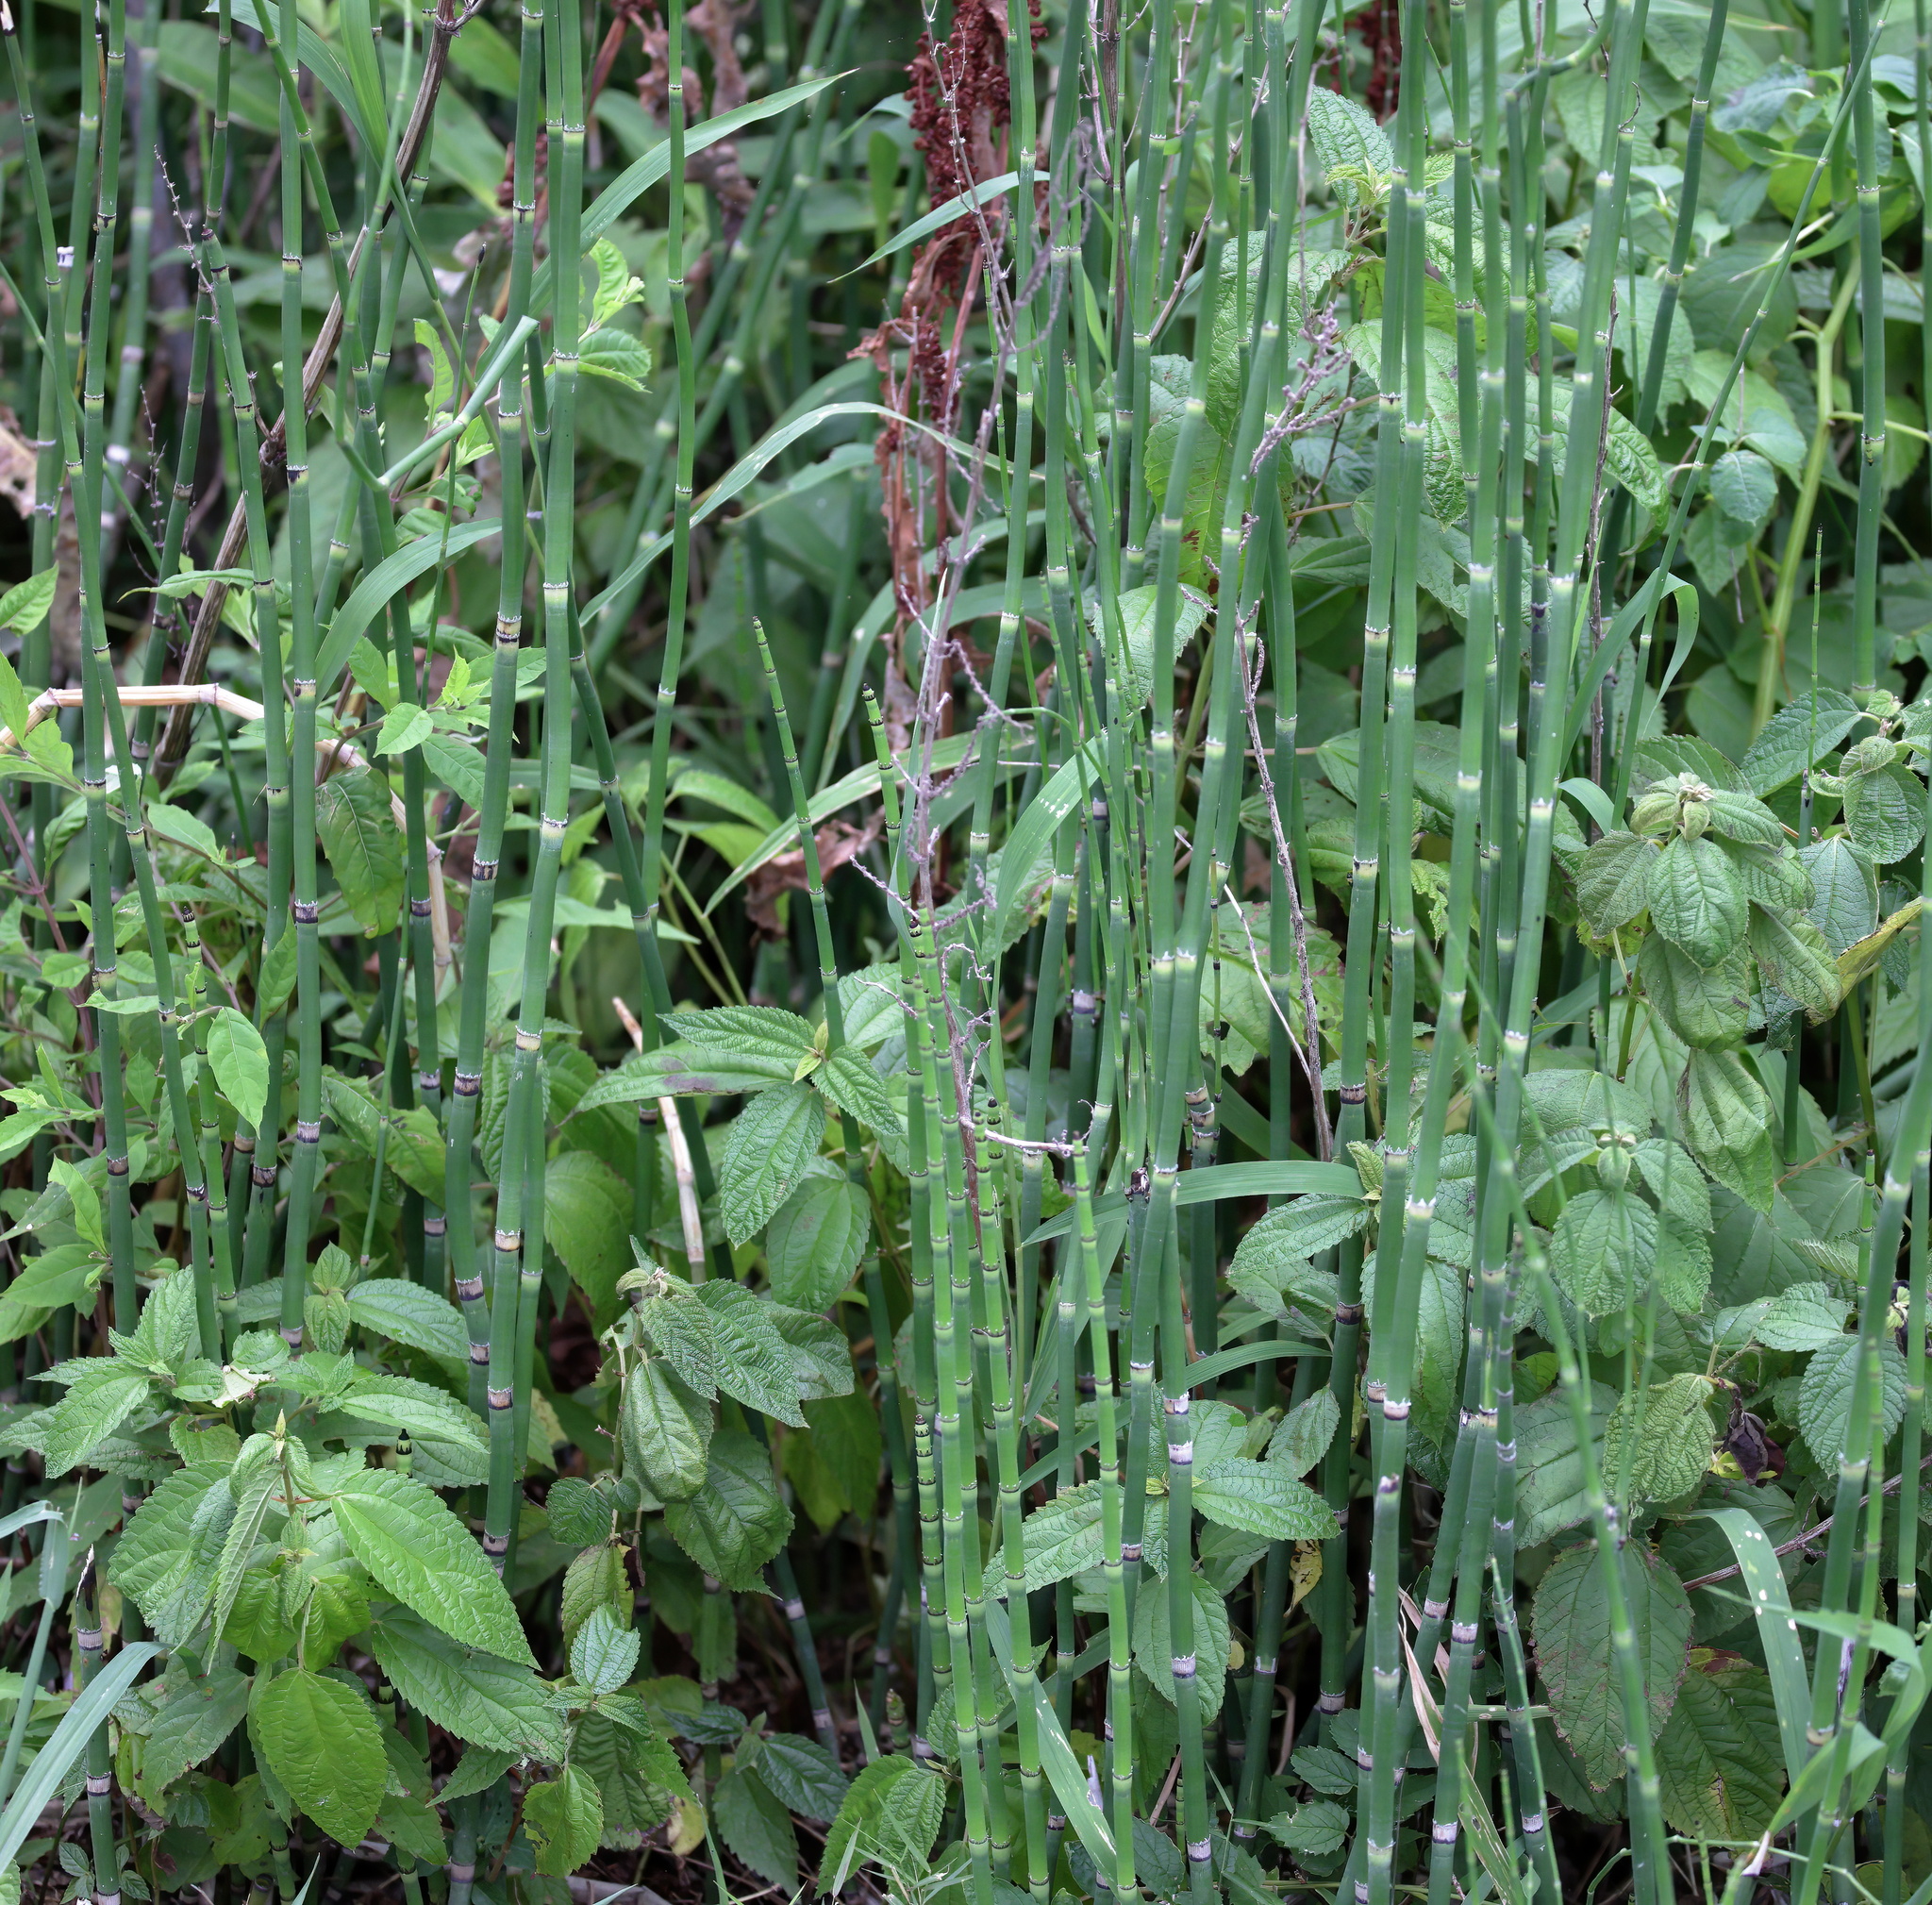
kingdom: Plantae
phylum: Tracheophyta
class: Polypodiopsida
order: Equisetales
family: Equisetaceae
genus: Equisetum
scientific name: Equisetum praealtum
